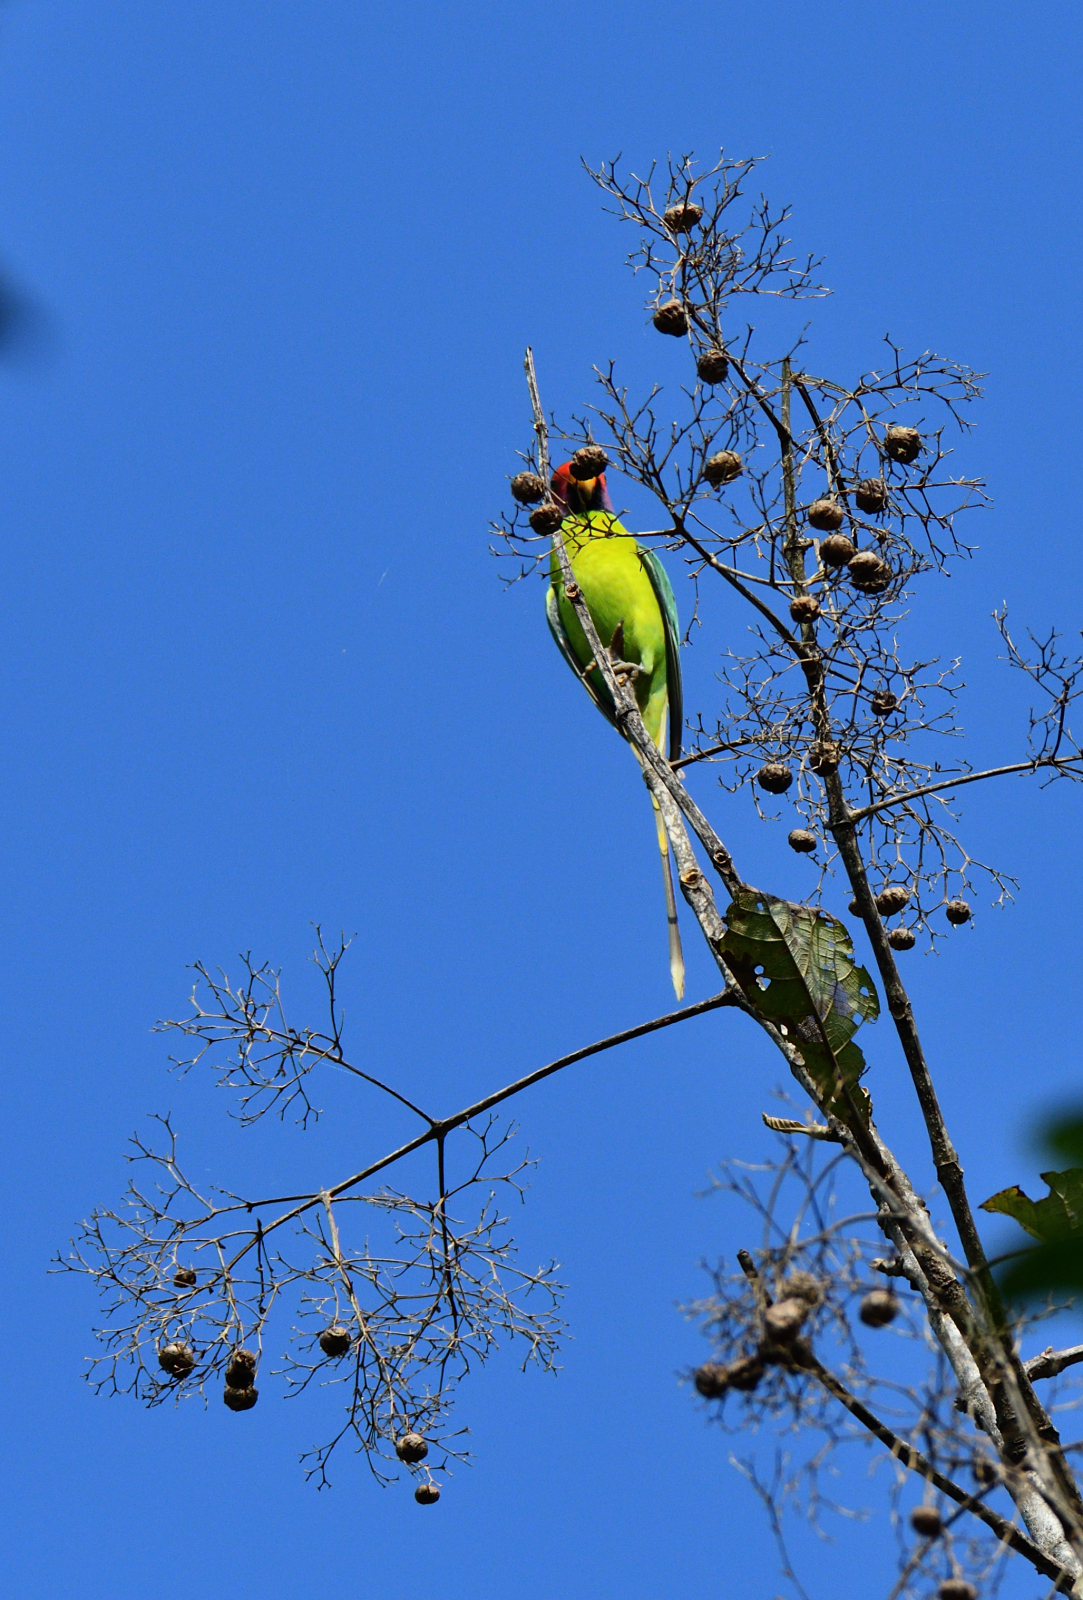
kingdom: Animalia
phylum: Chordata
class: Aves
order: Psittaciformes
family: Psittacidae
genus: Psittacula
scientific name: Psittacula cyanocephala
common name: Plum-headed parakeet
